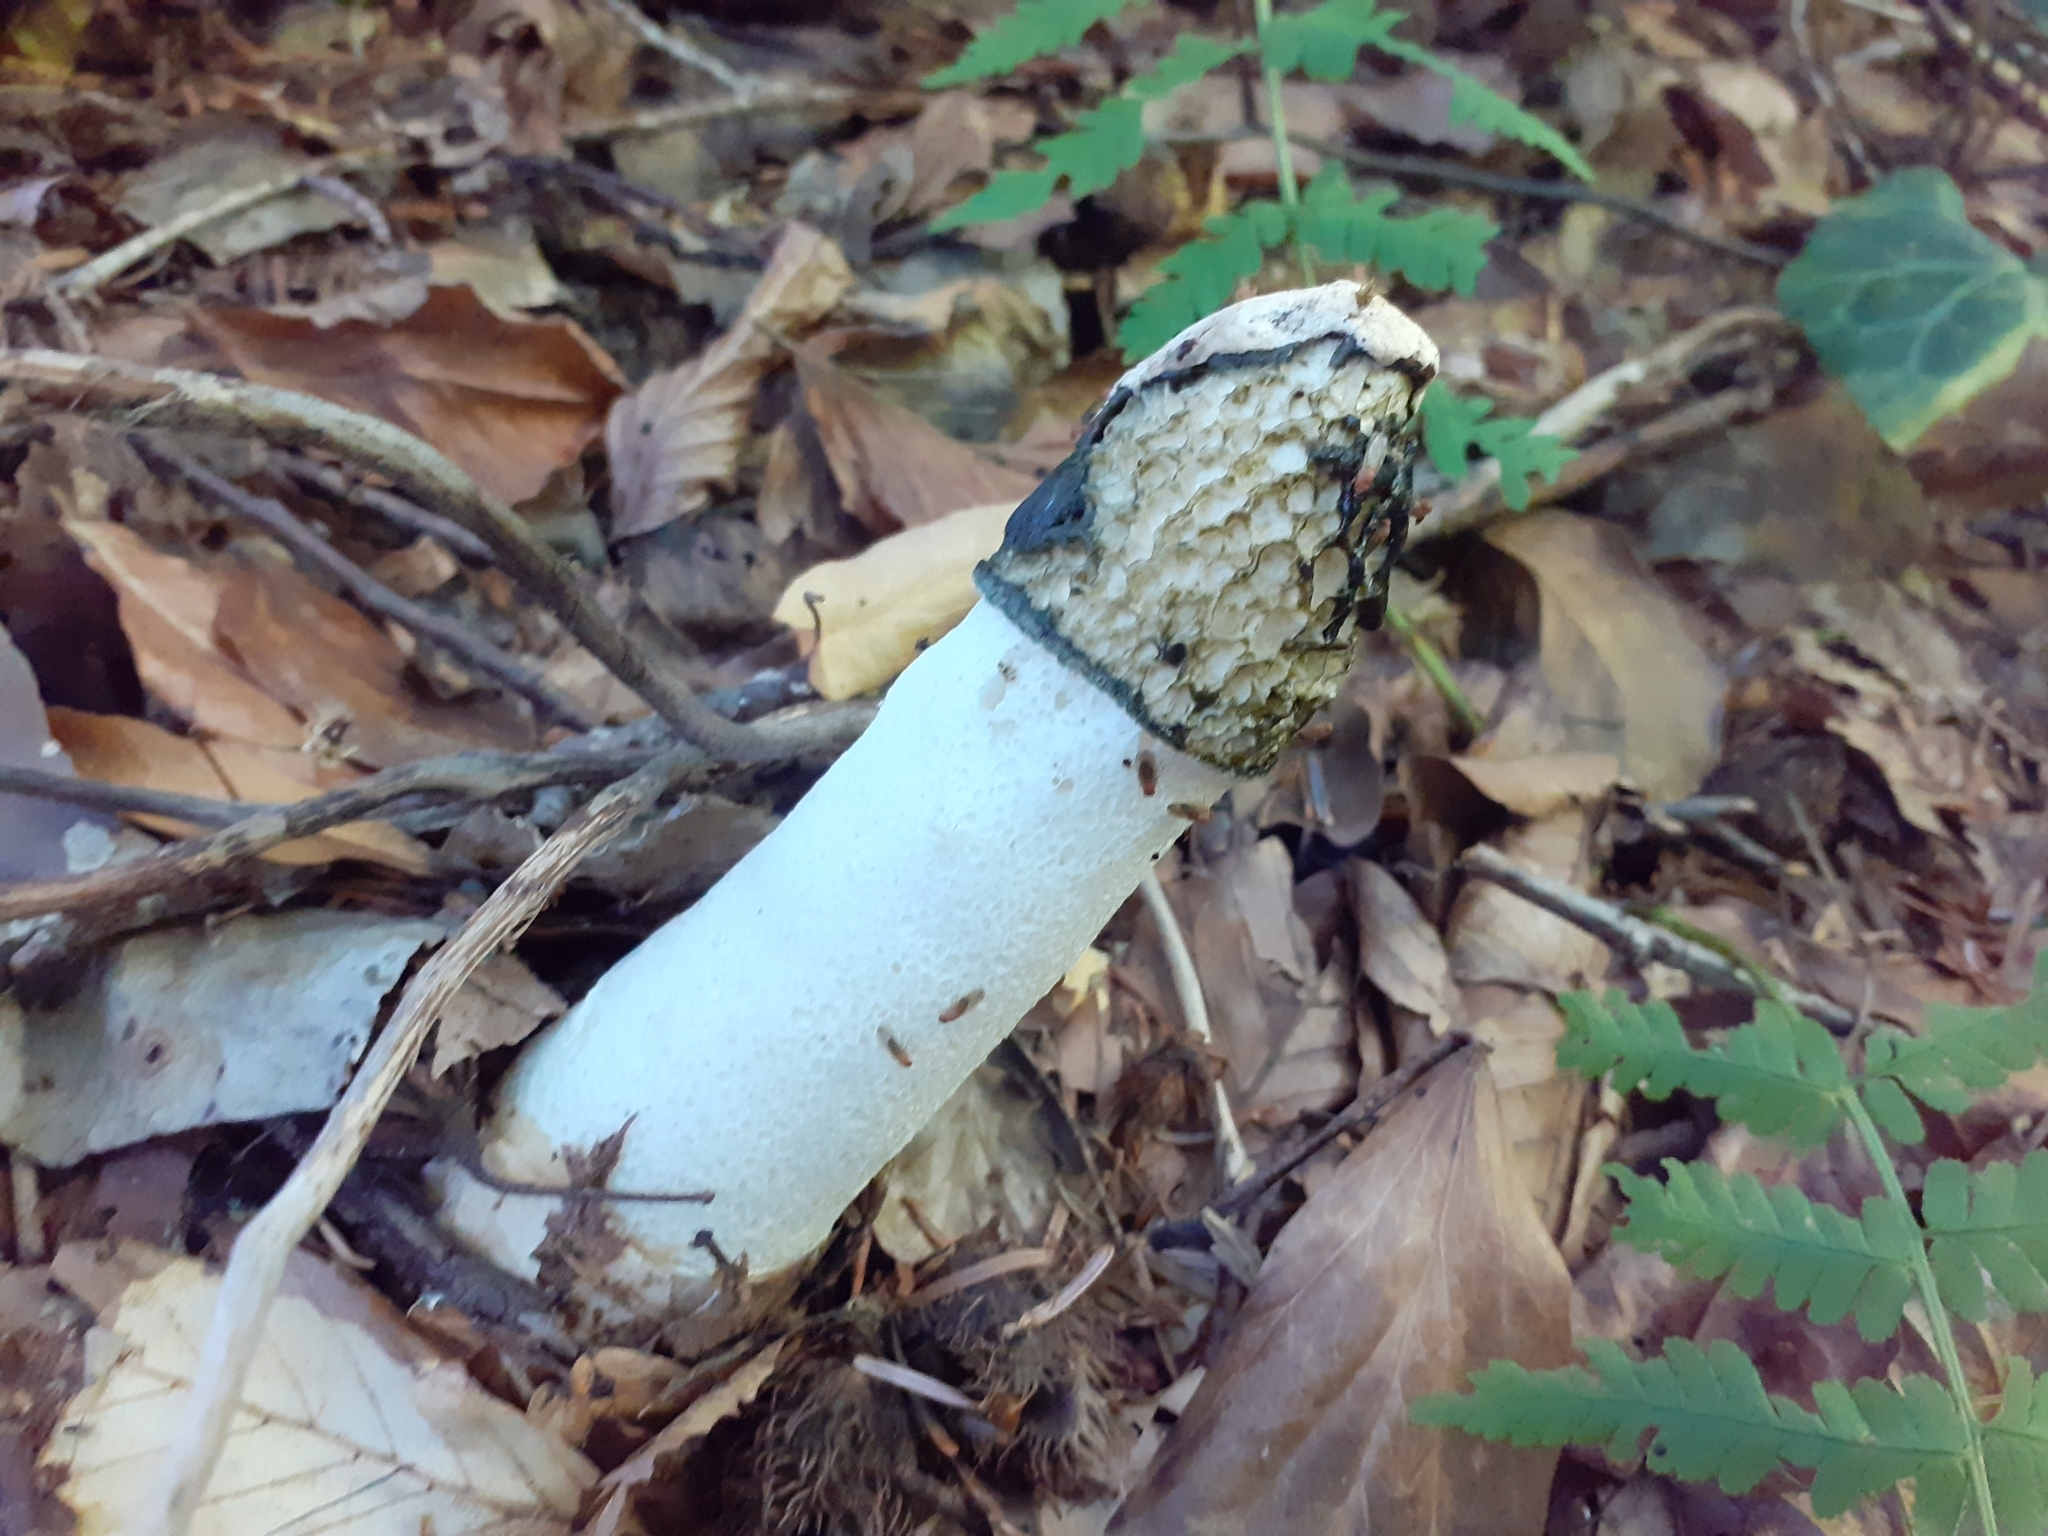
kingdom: Fungi
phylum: Basidiomycota
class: Agaricomycetes
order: Phallales
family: Phallaceae
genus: Phallus
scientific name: Phallus impudicus
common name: Common stinkhorn
